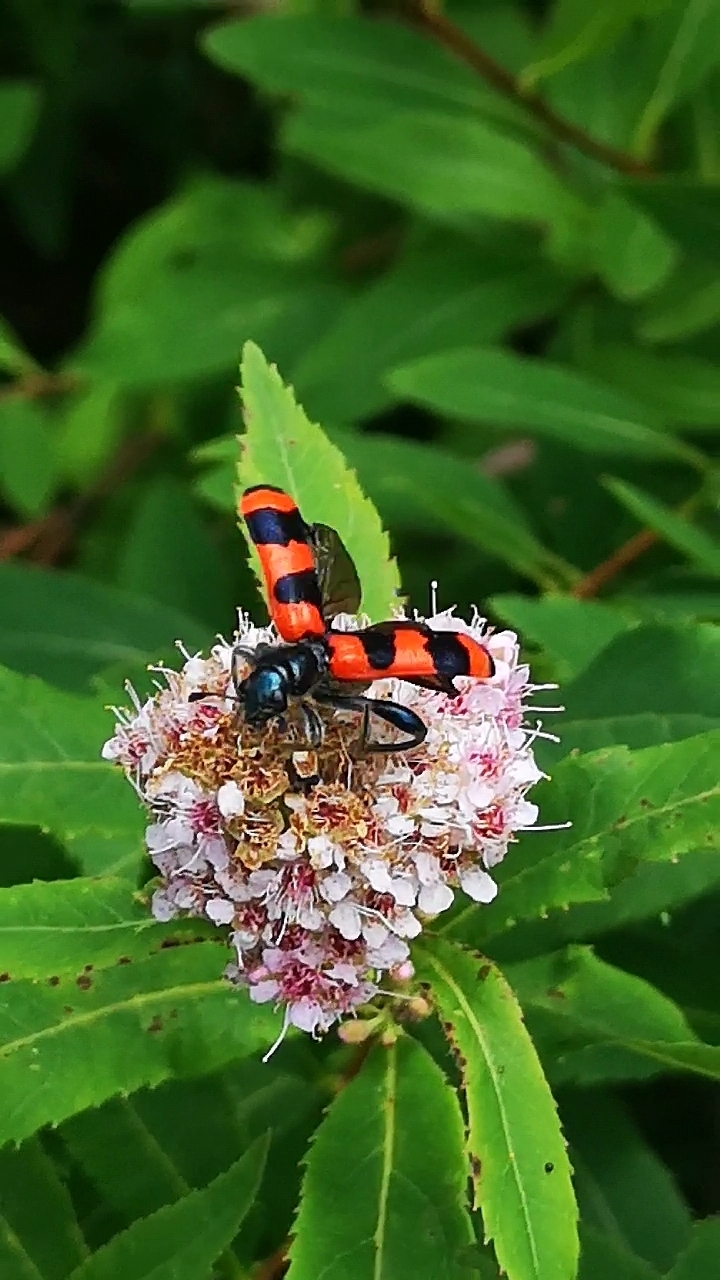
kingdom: Animalia
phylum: Arthropoda
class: Insecta
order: Coleoptera
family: Cleridae
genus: Trichodes
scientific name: Trichodes apiarius
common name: Bee-eating beetle
